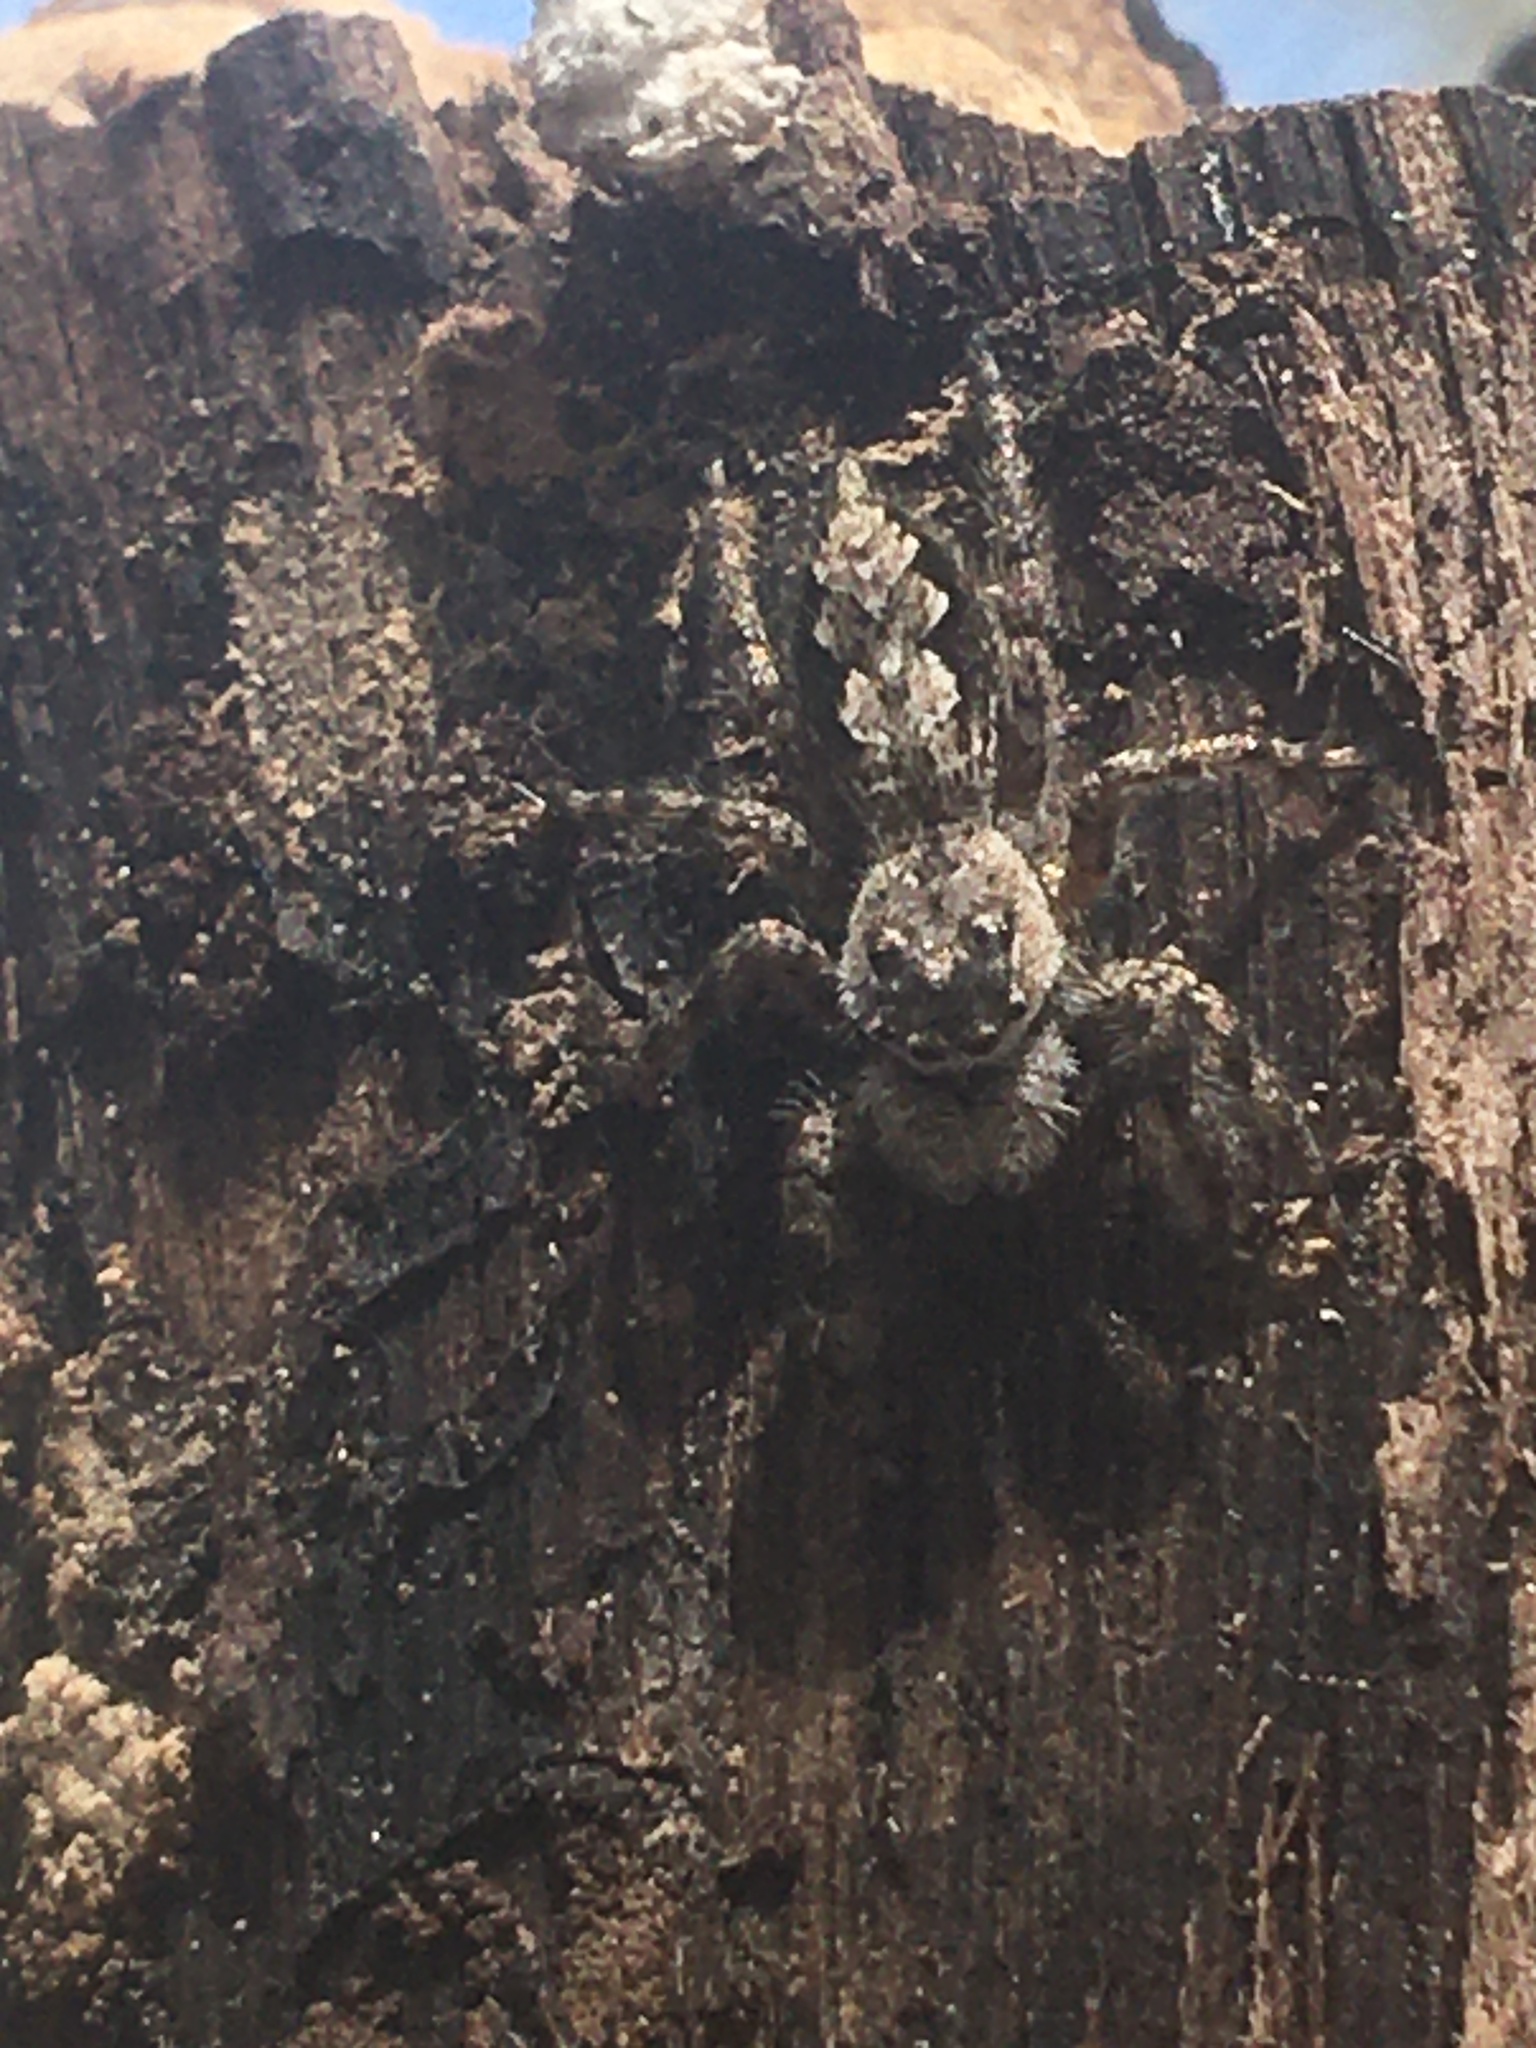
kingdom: Animalia
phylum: Arthropoda
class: Arachnida
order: Araneae
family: Salticidae
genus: Platycryptus
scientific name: Platycryptus undatus
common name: Tan jumping spider
